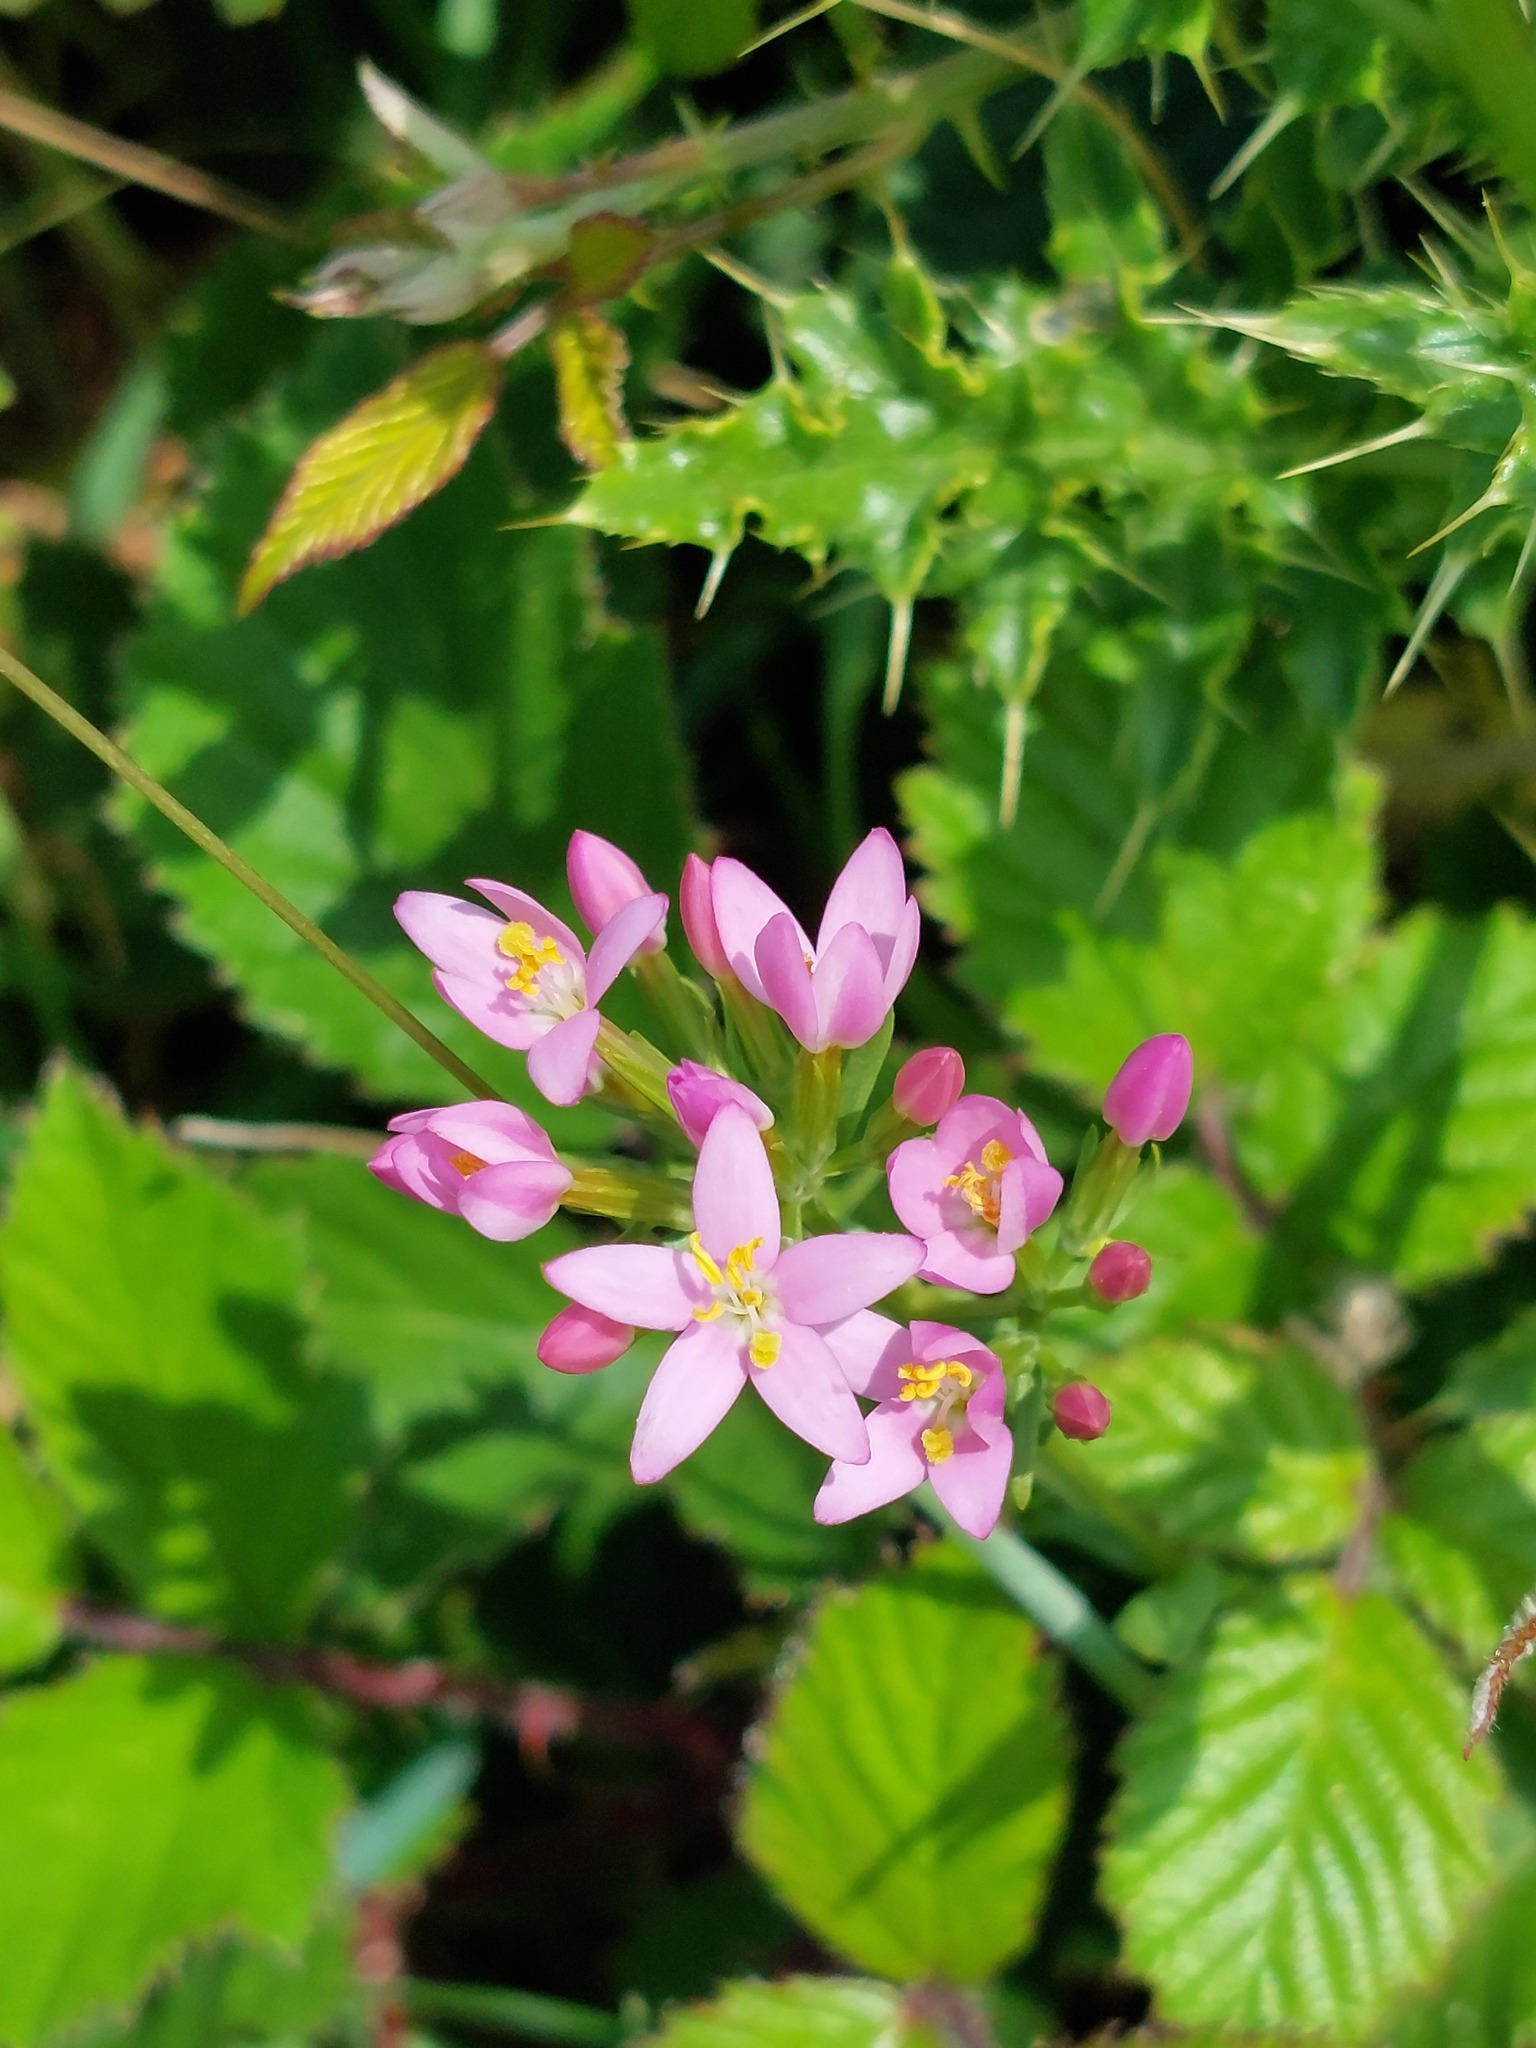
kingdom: Plantae
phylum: Tracheophyta
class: Magnoliopsida
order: Gentianales
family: Gentianaceae
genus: Centaurium
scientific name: Centaurium erythraea
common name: Common centaury
